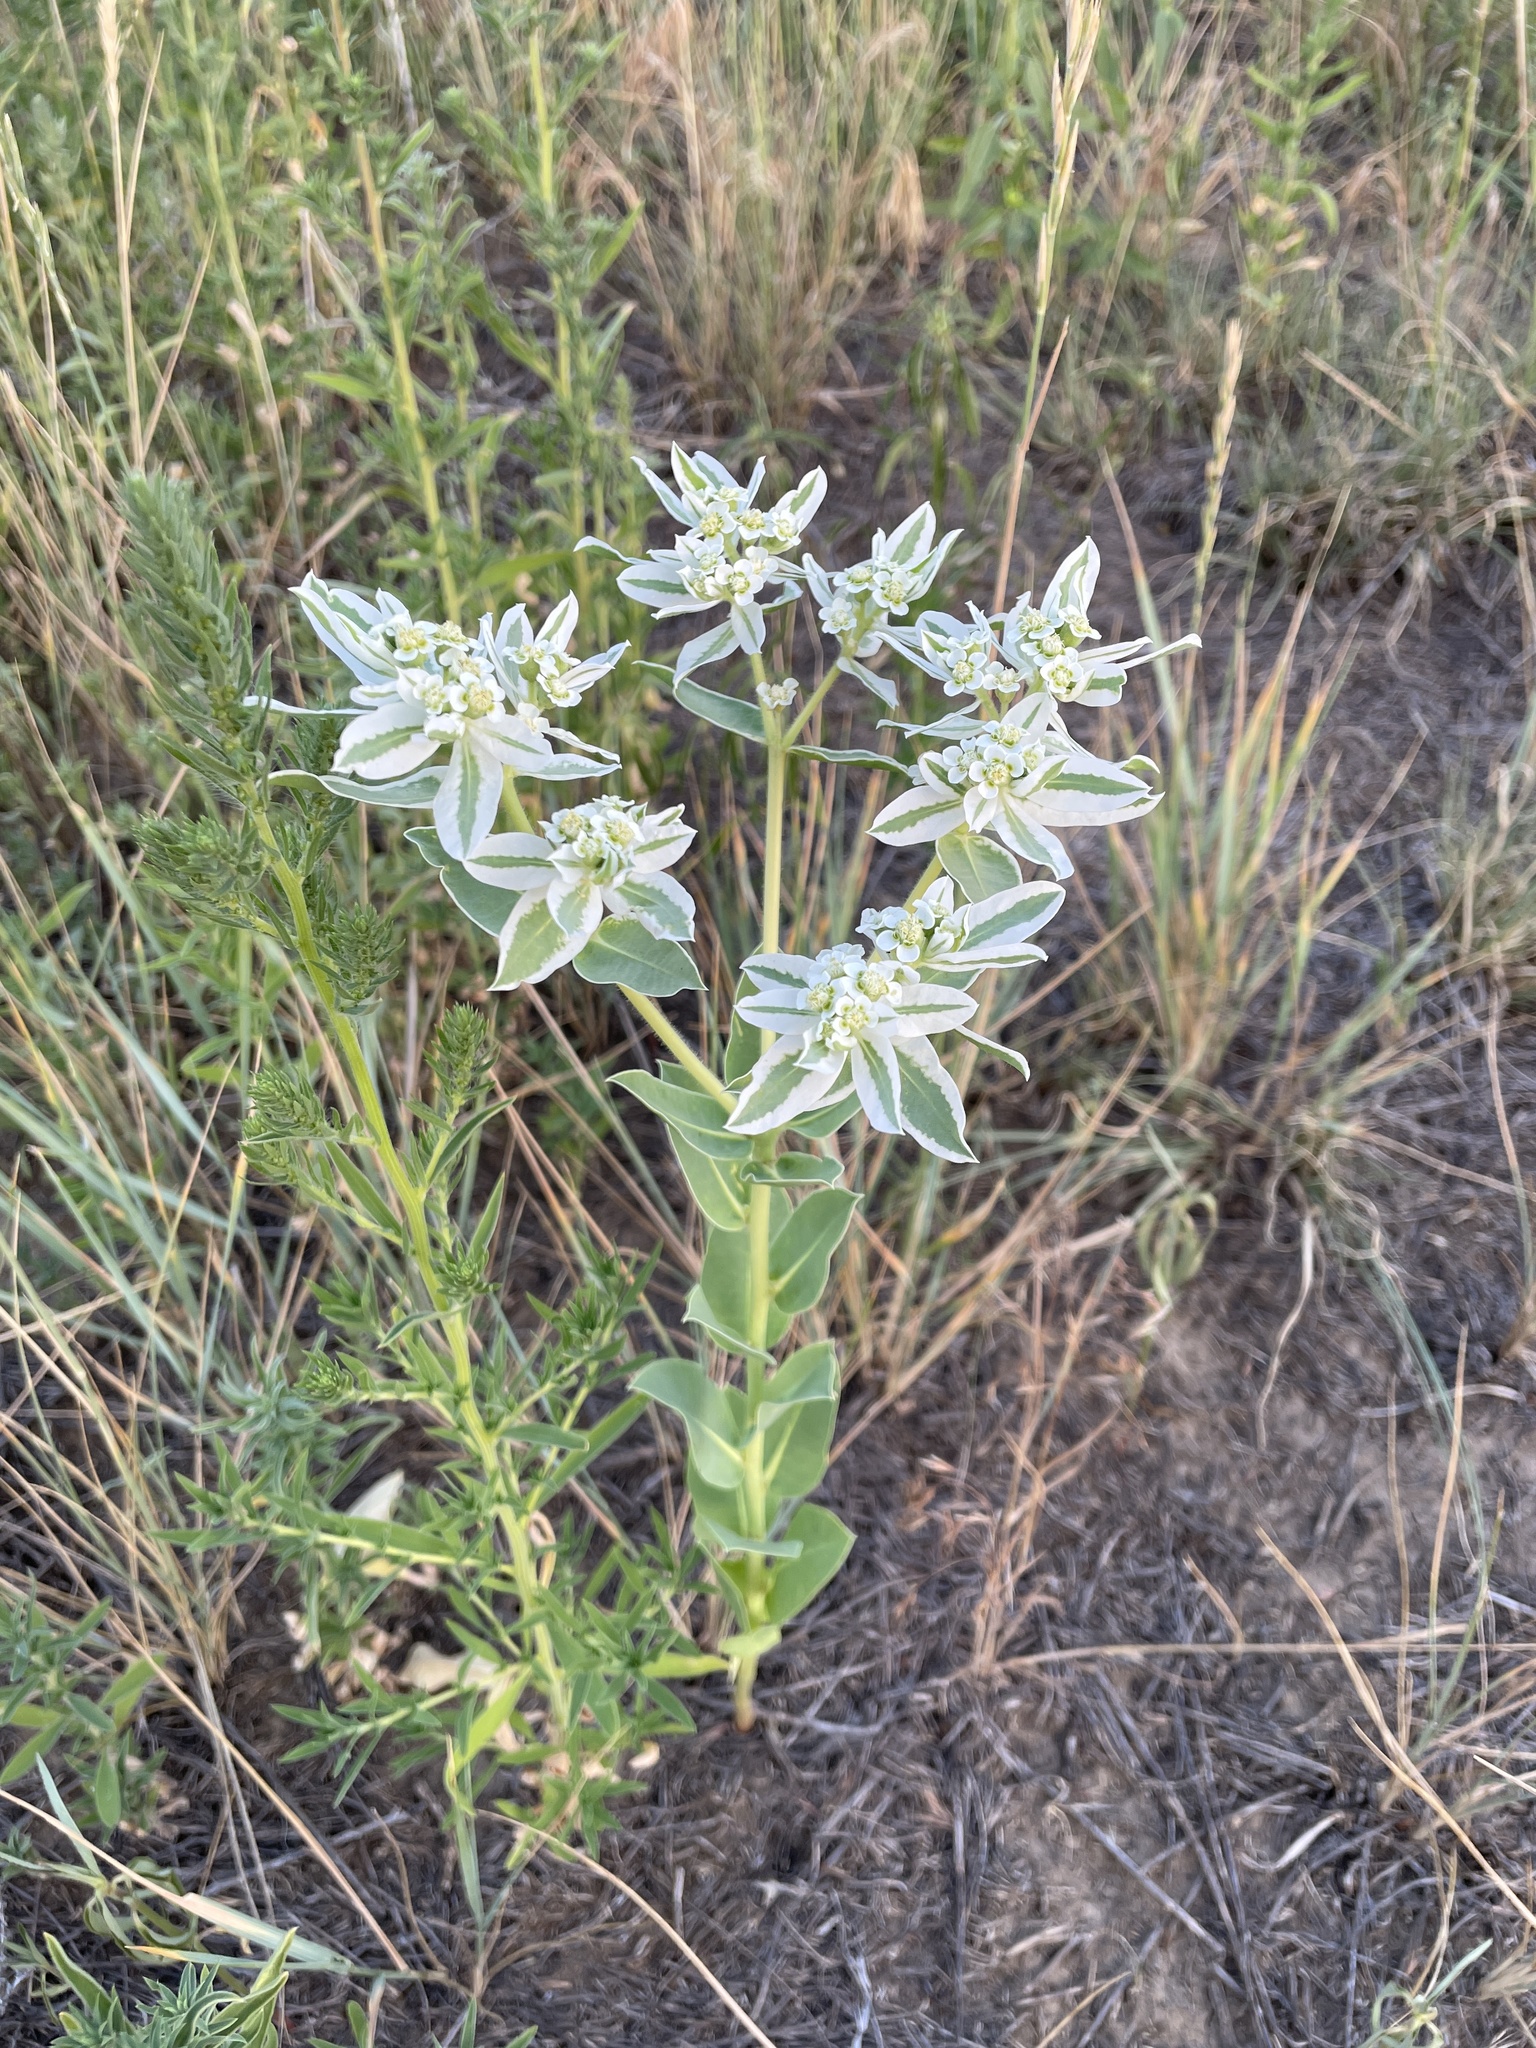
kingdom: Plantae
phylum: Tracheophyta
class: Magnoliopsida
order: Malpighiales
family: Euphorbiaceae
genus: Euphorbia
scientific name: Euphorbia marginata
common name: Ghostweed
